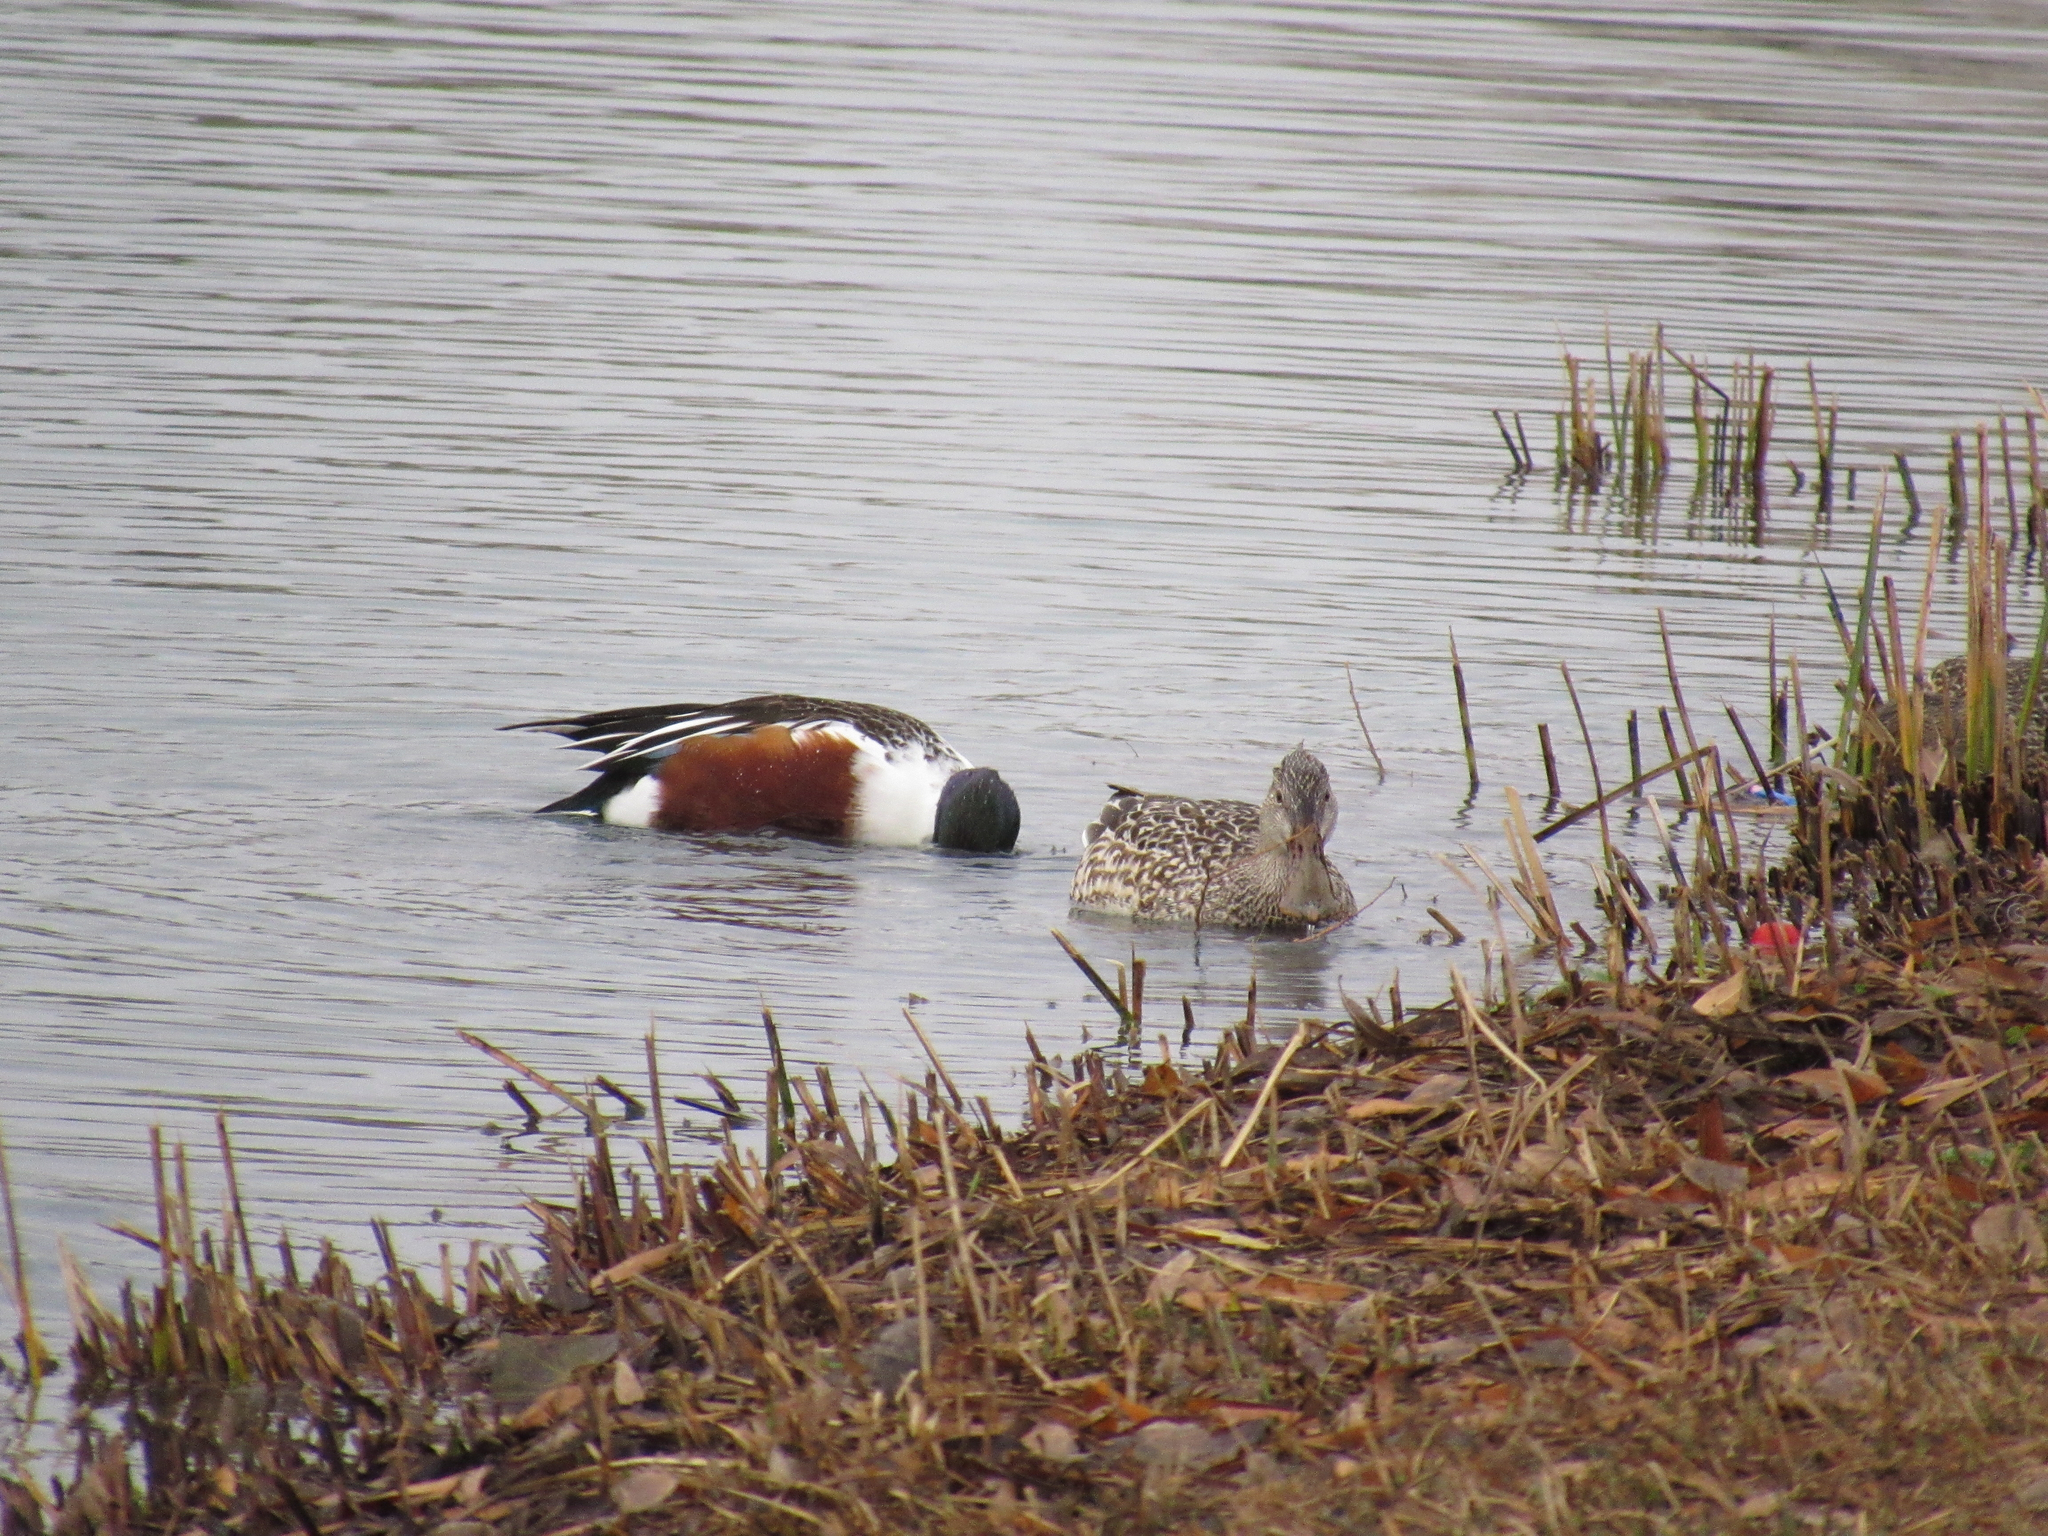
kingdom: Animalia
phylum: Chordata
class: Aves
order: Anseriformes
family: Anatidae
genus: Spatula
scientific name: Spatula clypeata
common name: Northern shoveler
